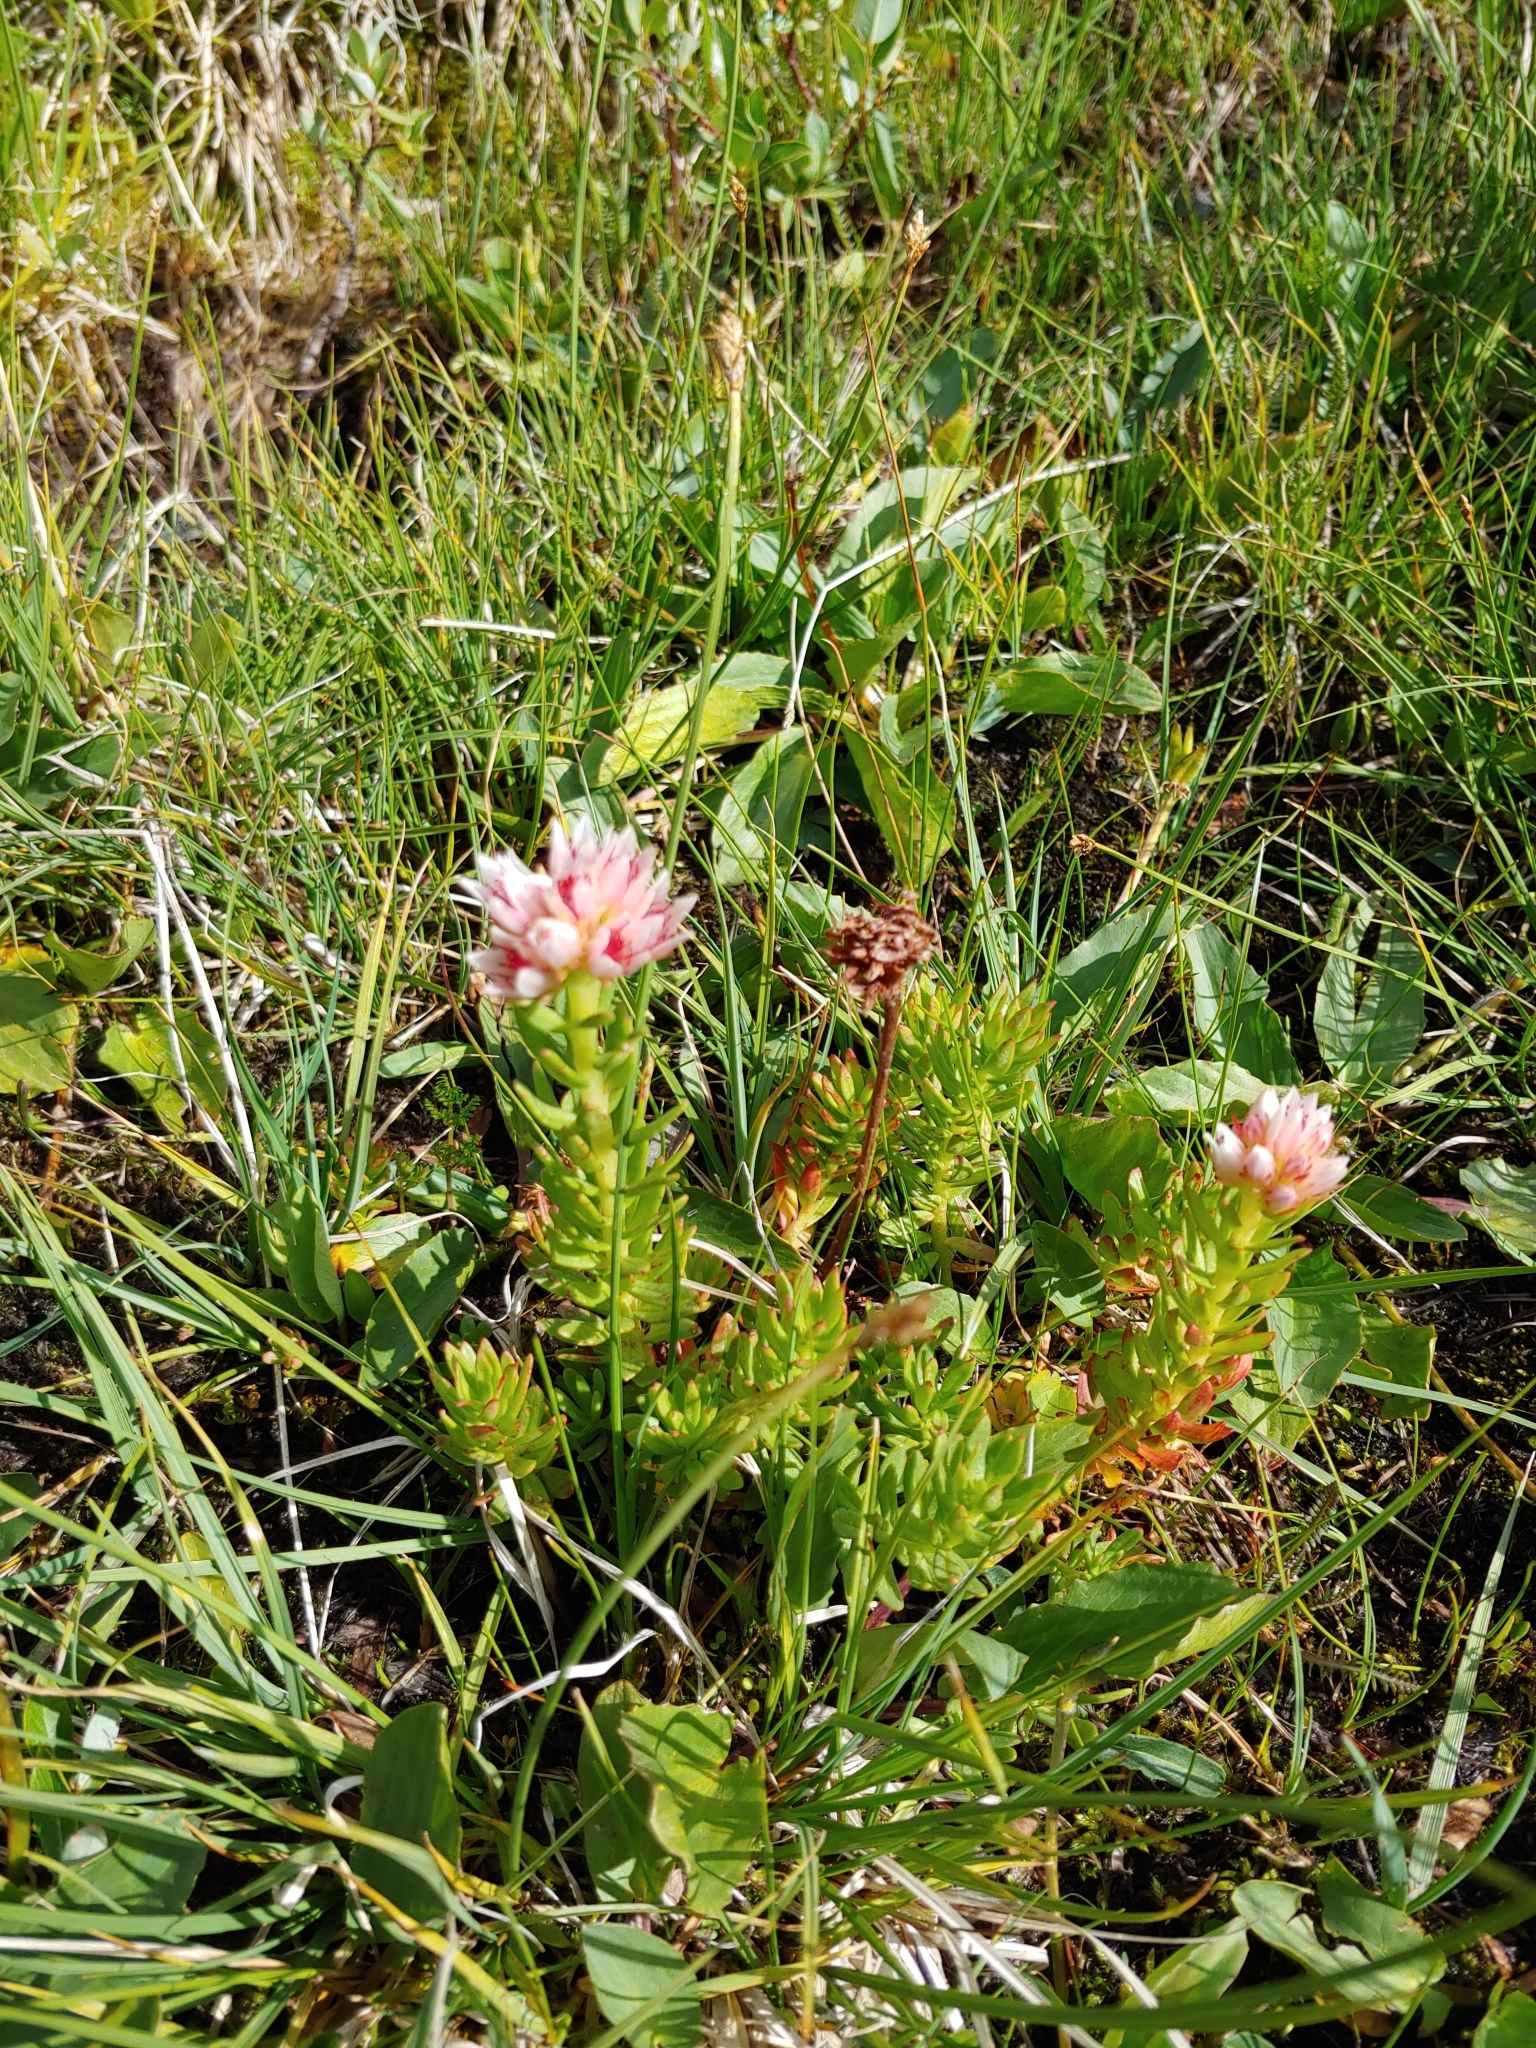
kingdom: Plantae
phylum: Tracheophyta
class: Magnoliopsida
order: Saxifragales
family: Crassulaceae
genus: Rhodiola
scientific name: Rhodiola rhodantha
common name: Red orpine
